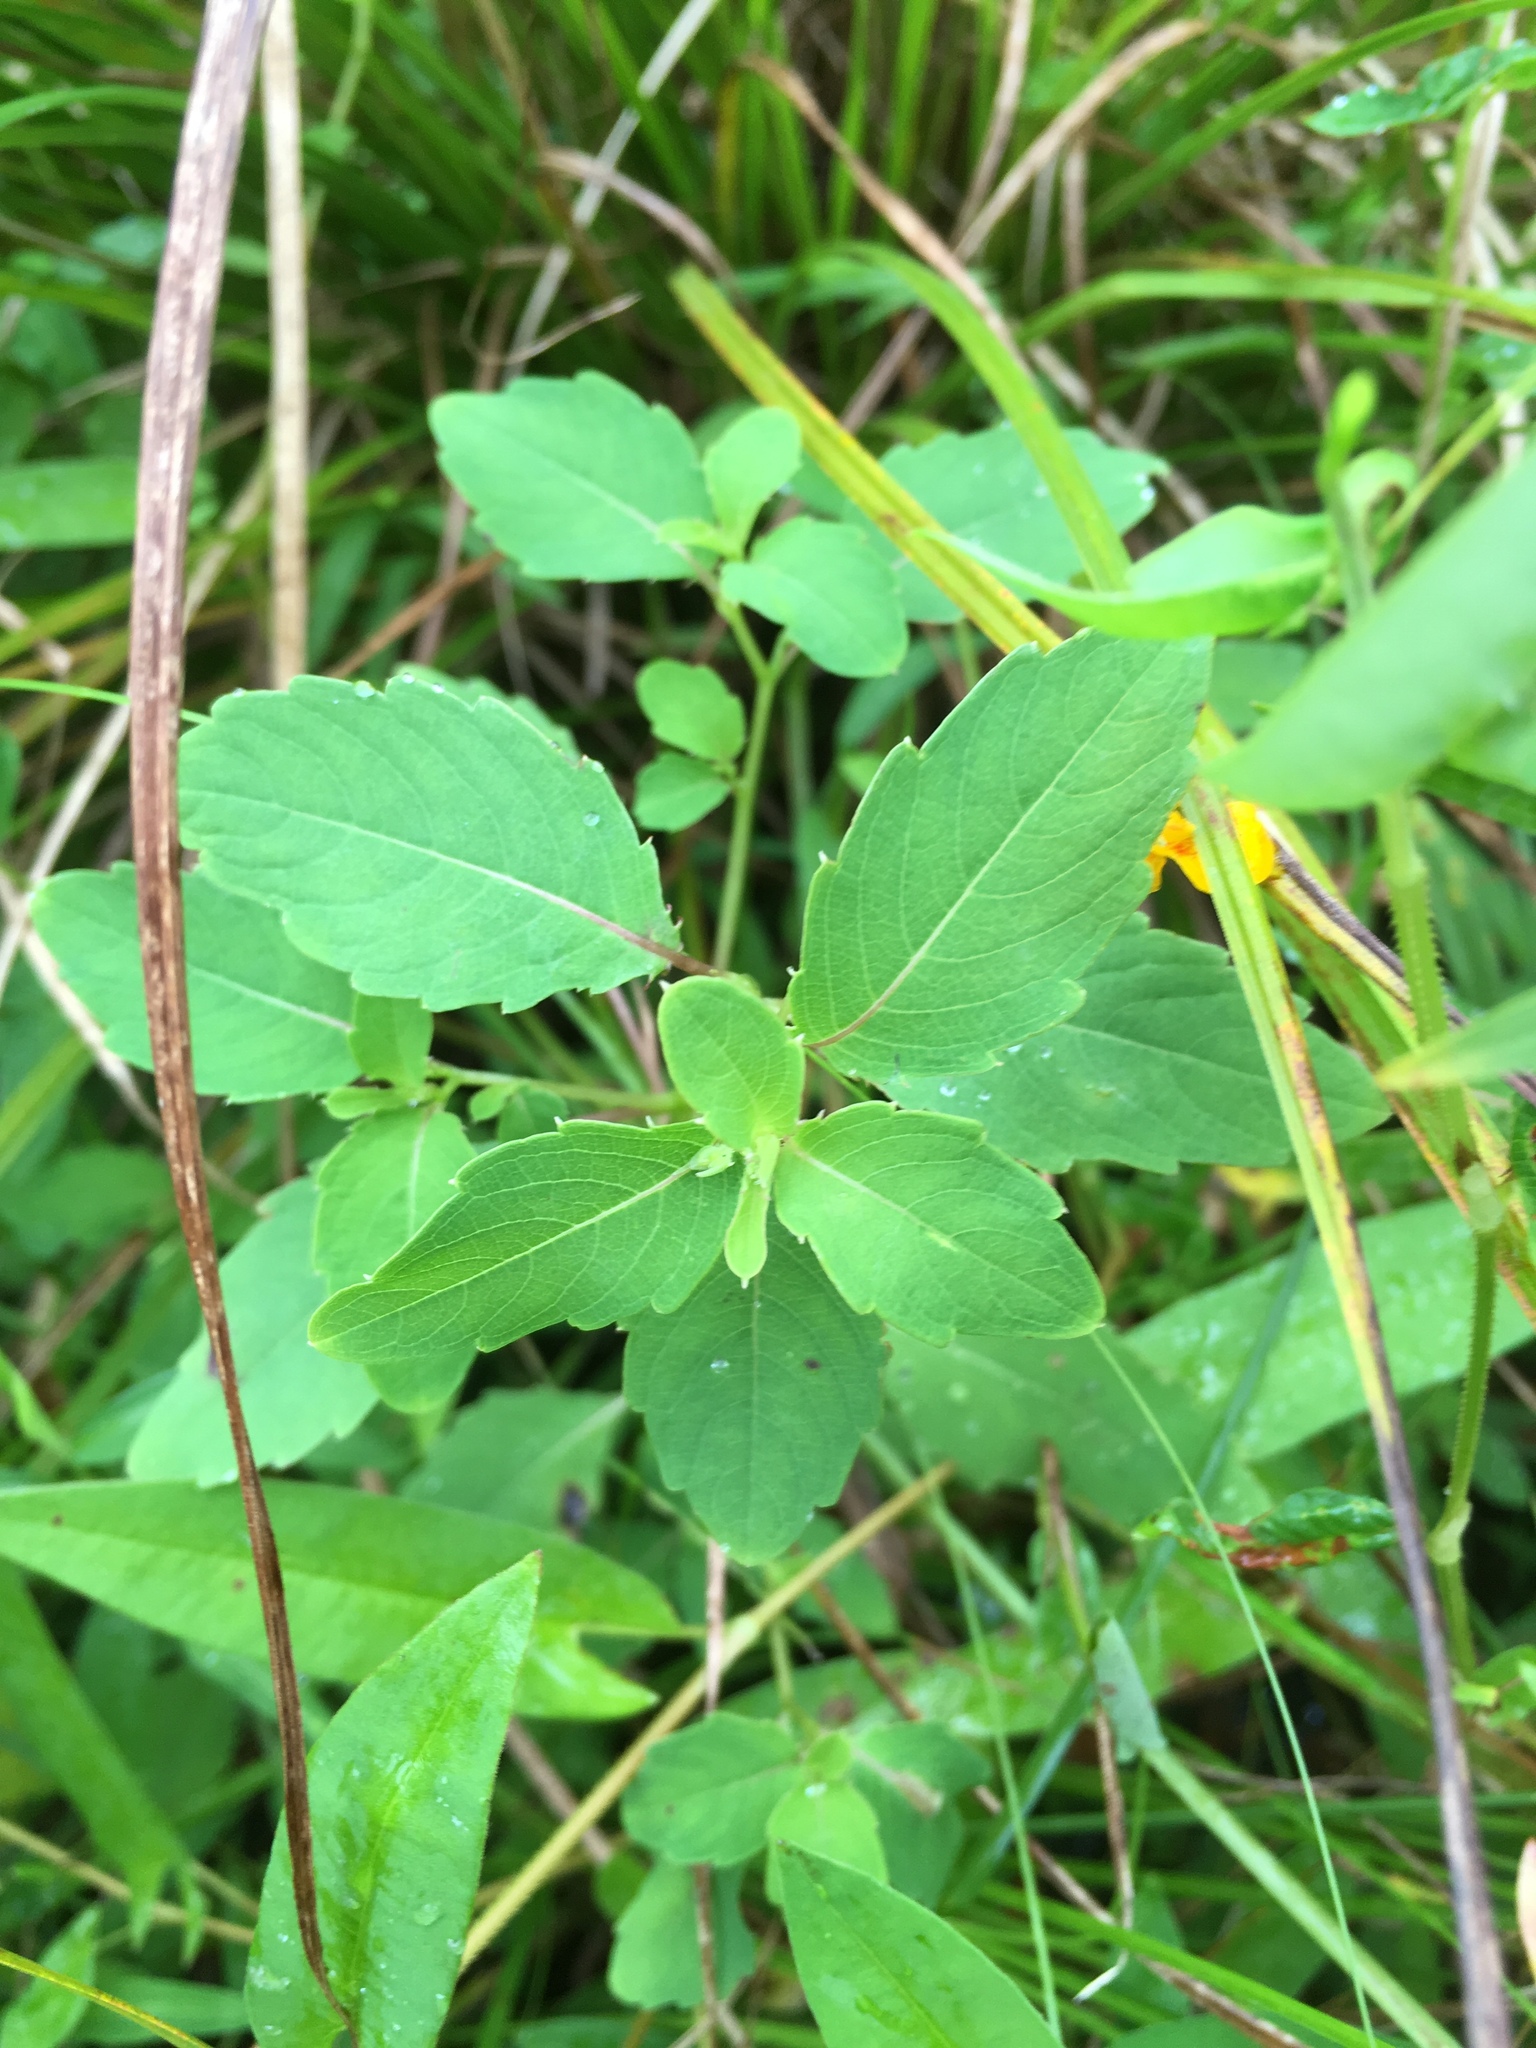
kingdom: Plantae
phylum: Tracheophyta
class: Magnoliopsida
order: Ericales
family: Balsaminaceae
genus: Impatiens
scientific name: Impatiens capensis
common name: Orange balsam
